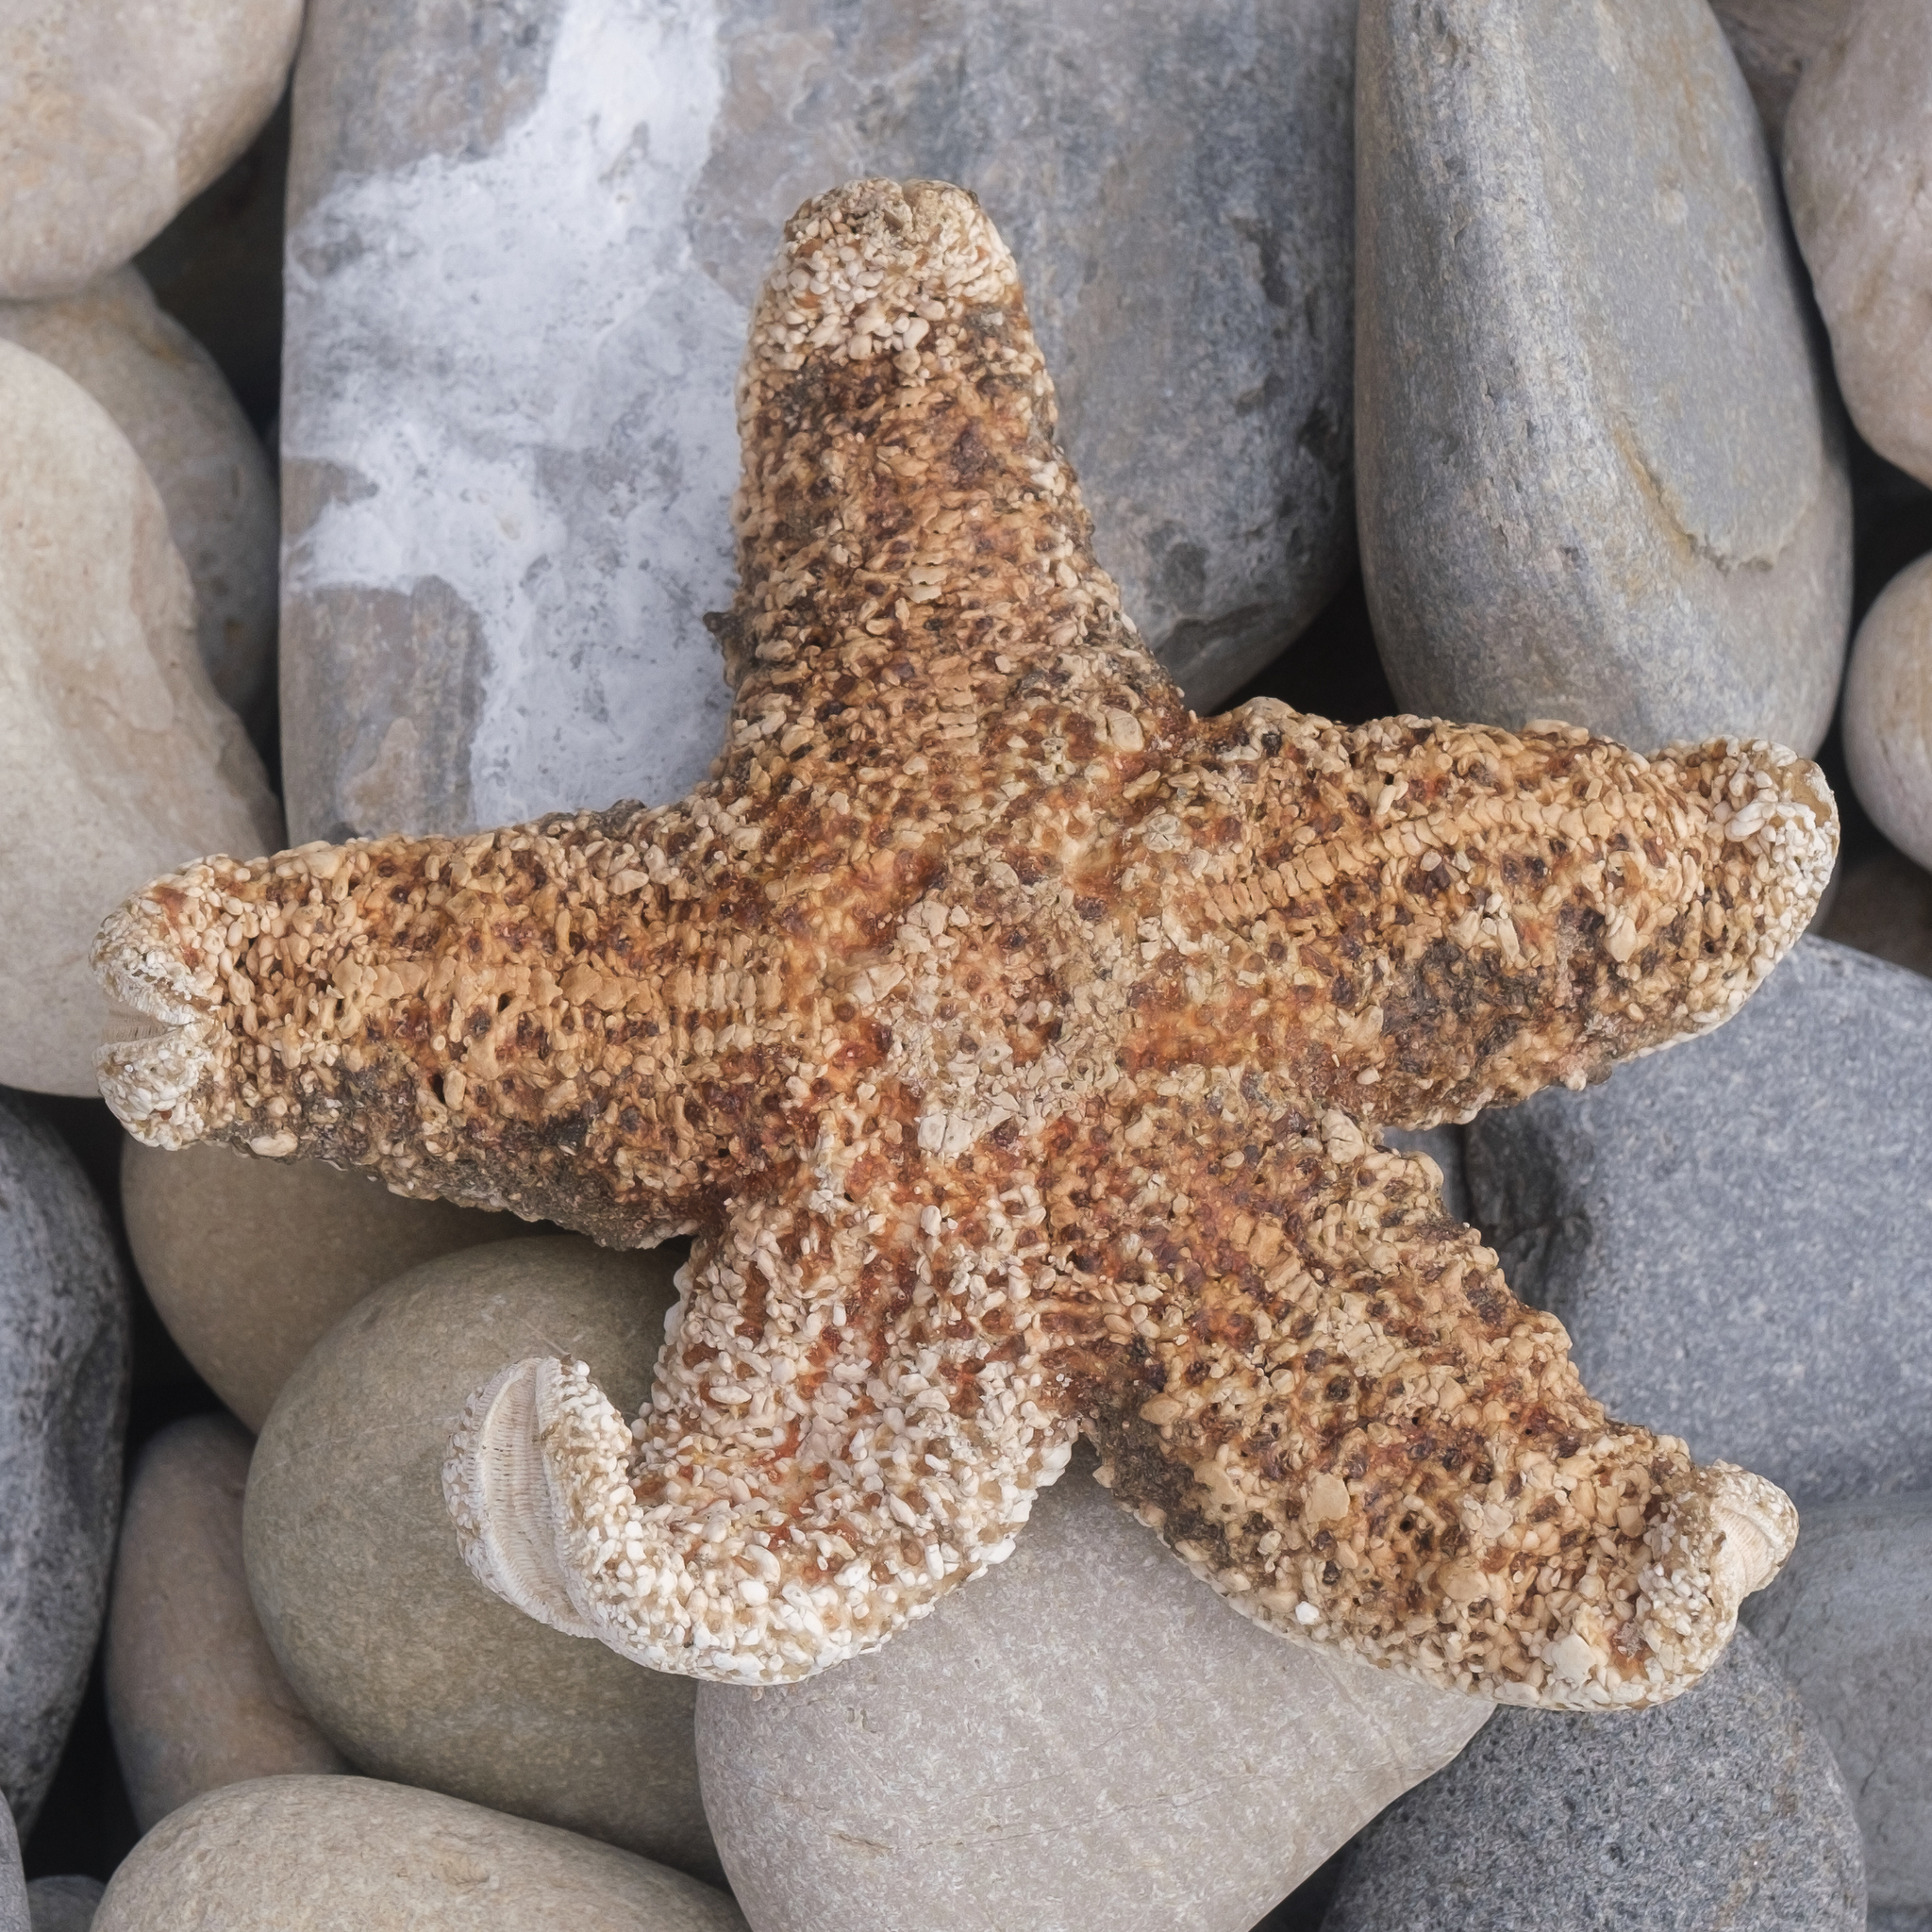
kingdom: Animalia
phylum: Echinodermata
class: Asteroidea
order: Forcipulatida
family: Asteriidae
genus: Pisaster
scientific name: Pisaster ochraceus
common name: Ochre stars
